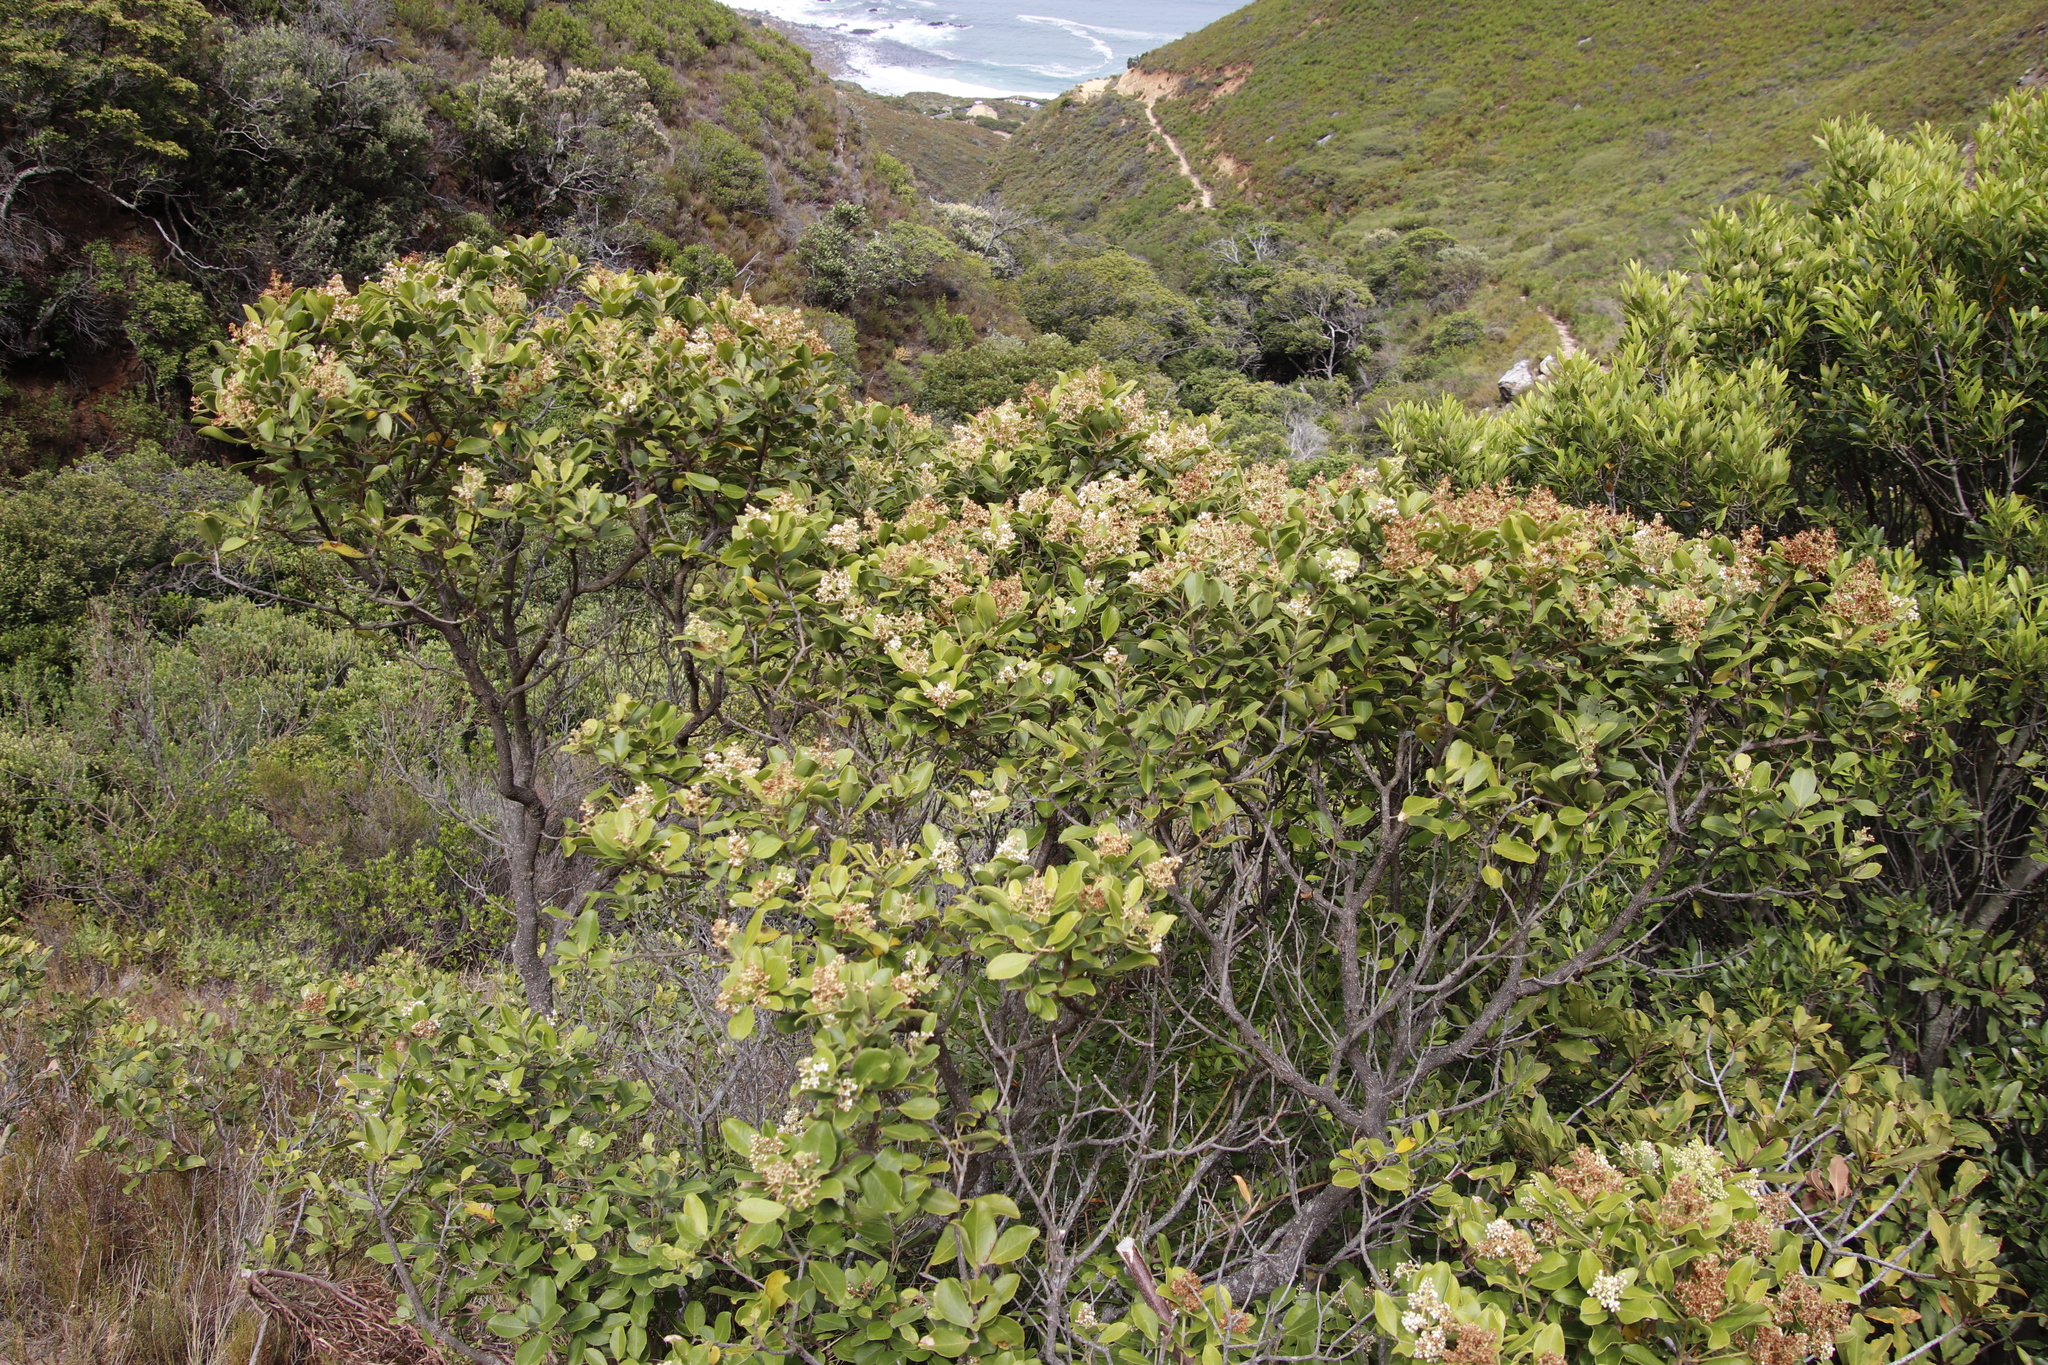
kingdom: Plantae
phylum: Tracheophyta
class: Magnoliopsida
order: Lamiales
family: Oleaceae
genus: Olea
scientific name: Olea capensis
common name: Black ironwood
